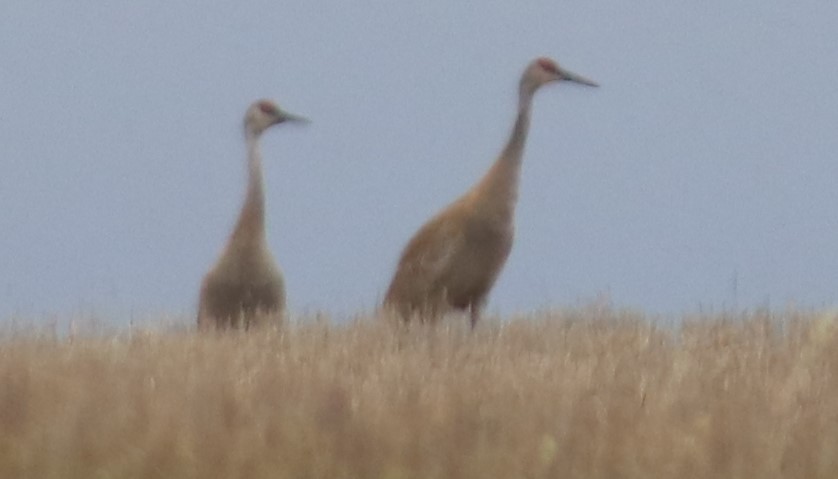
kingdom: Animalia
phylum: Chordata
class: Aves
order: Gruiformes
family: Gruidae
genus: Grus
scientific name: Grus canadensis
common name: Sandhill crane
